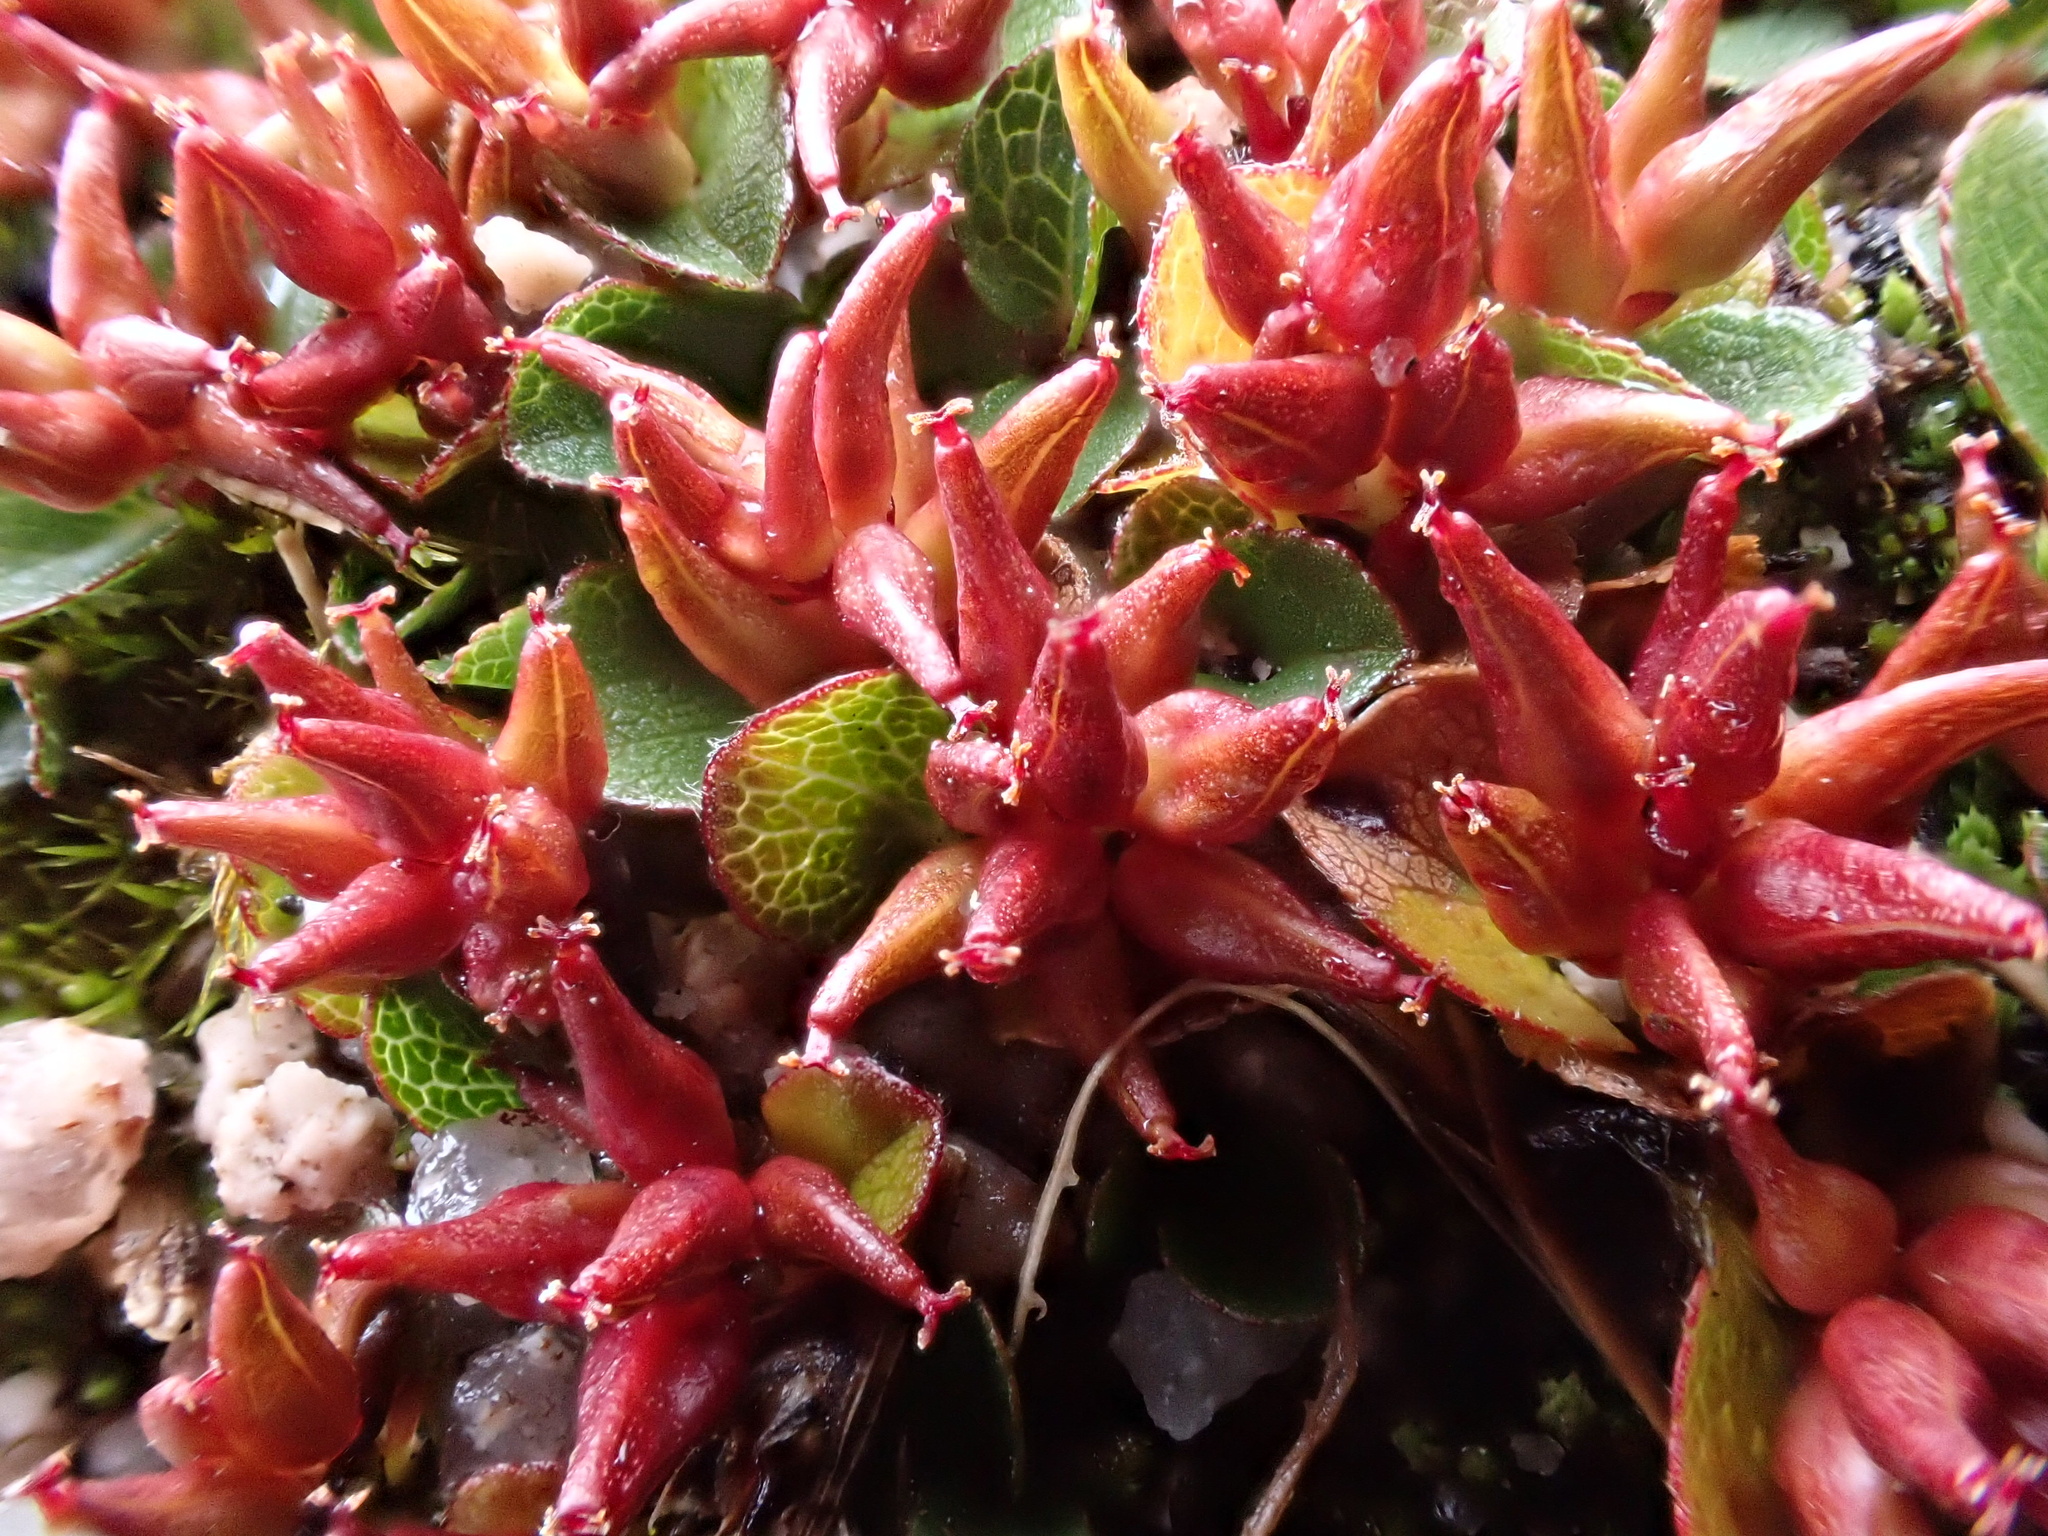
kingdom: Plantae
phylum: Tracheophyta
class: Magnoliopsida
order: Malpighiales
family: Salicaceae
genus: Salix
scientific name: Salix herbacea
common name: Dwarf willow
